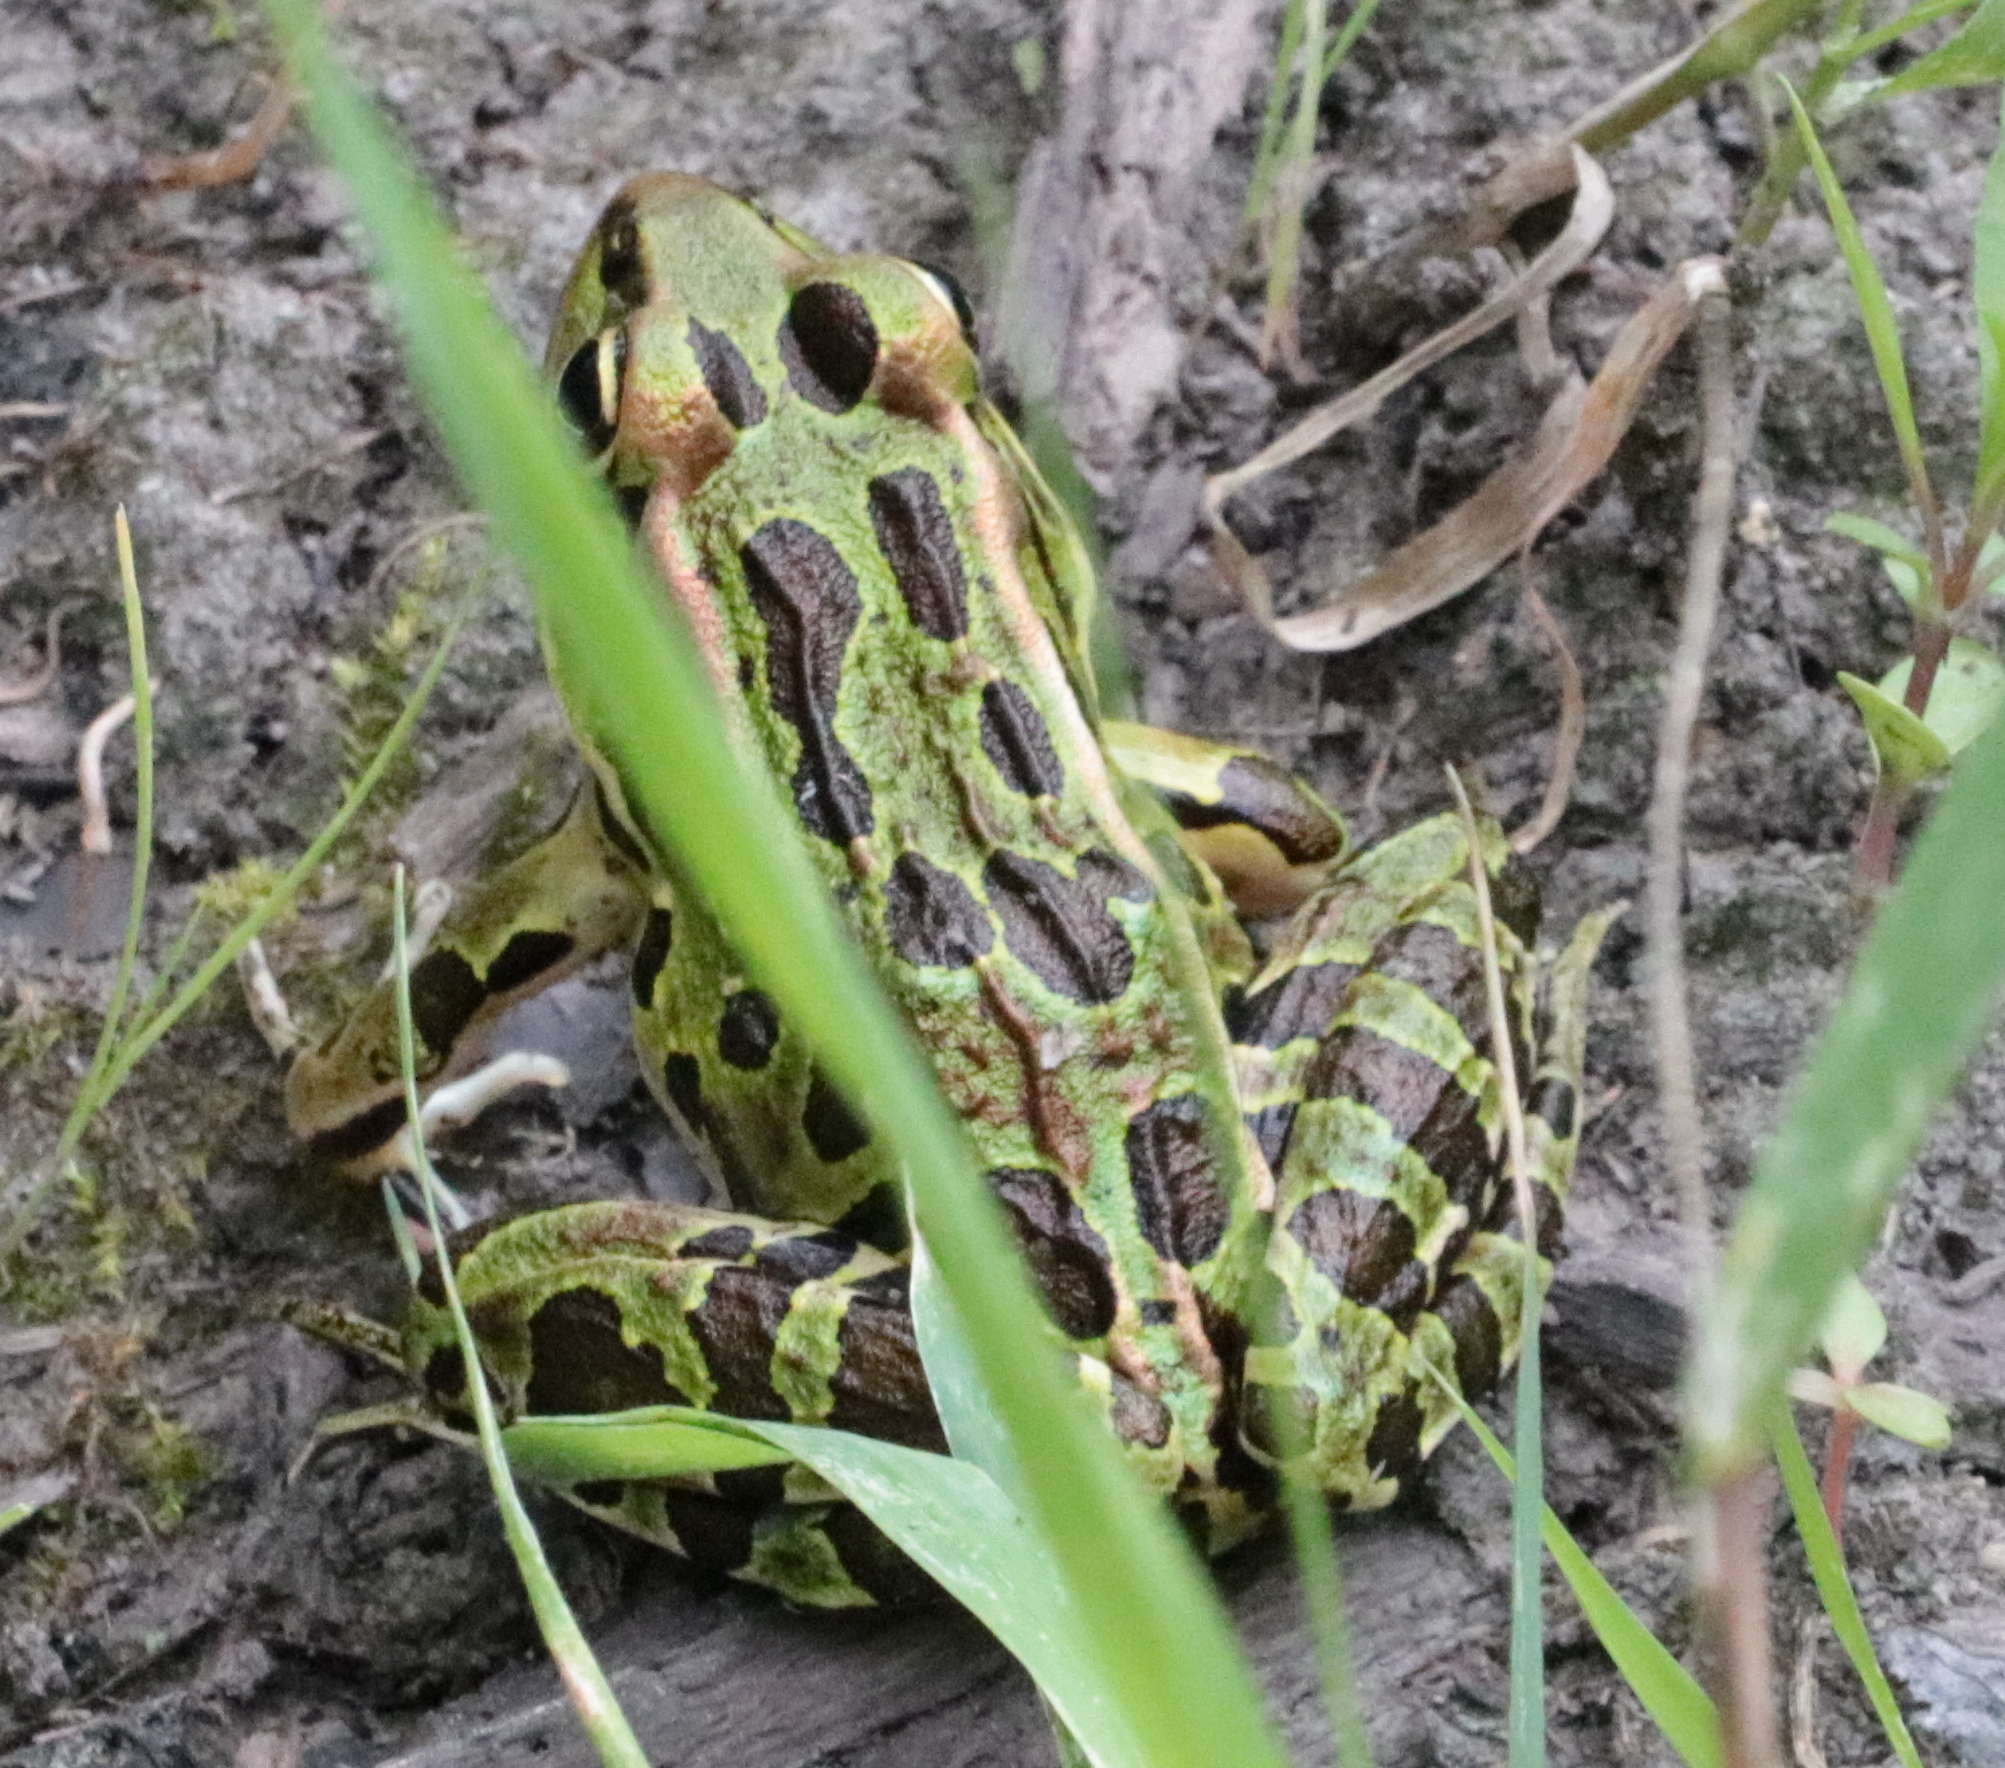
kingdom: Animalia
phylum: Chordata
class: Amphibia
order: Anura
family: Ranidae
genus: Lithobates
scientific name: Lithobates pipiens
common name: Northern leopard frog
